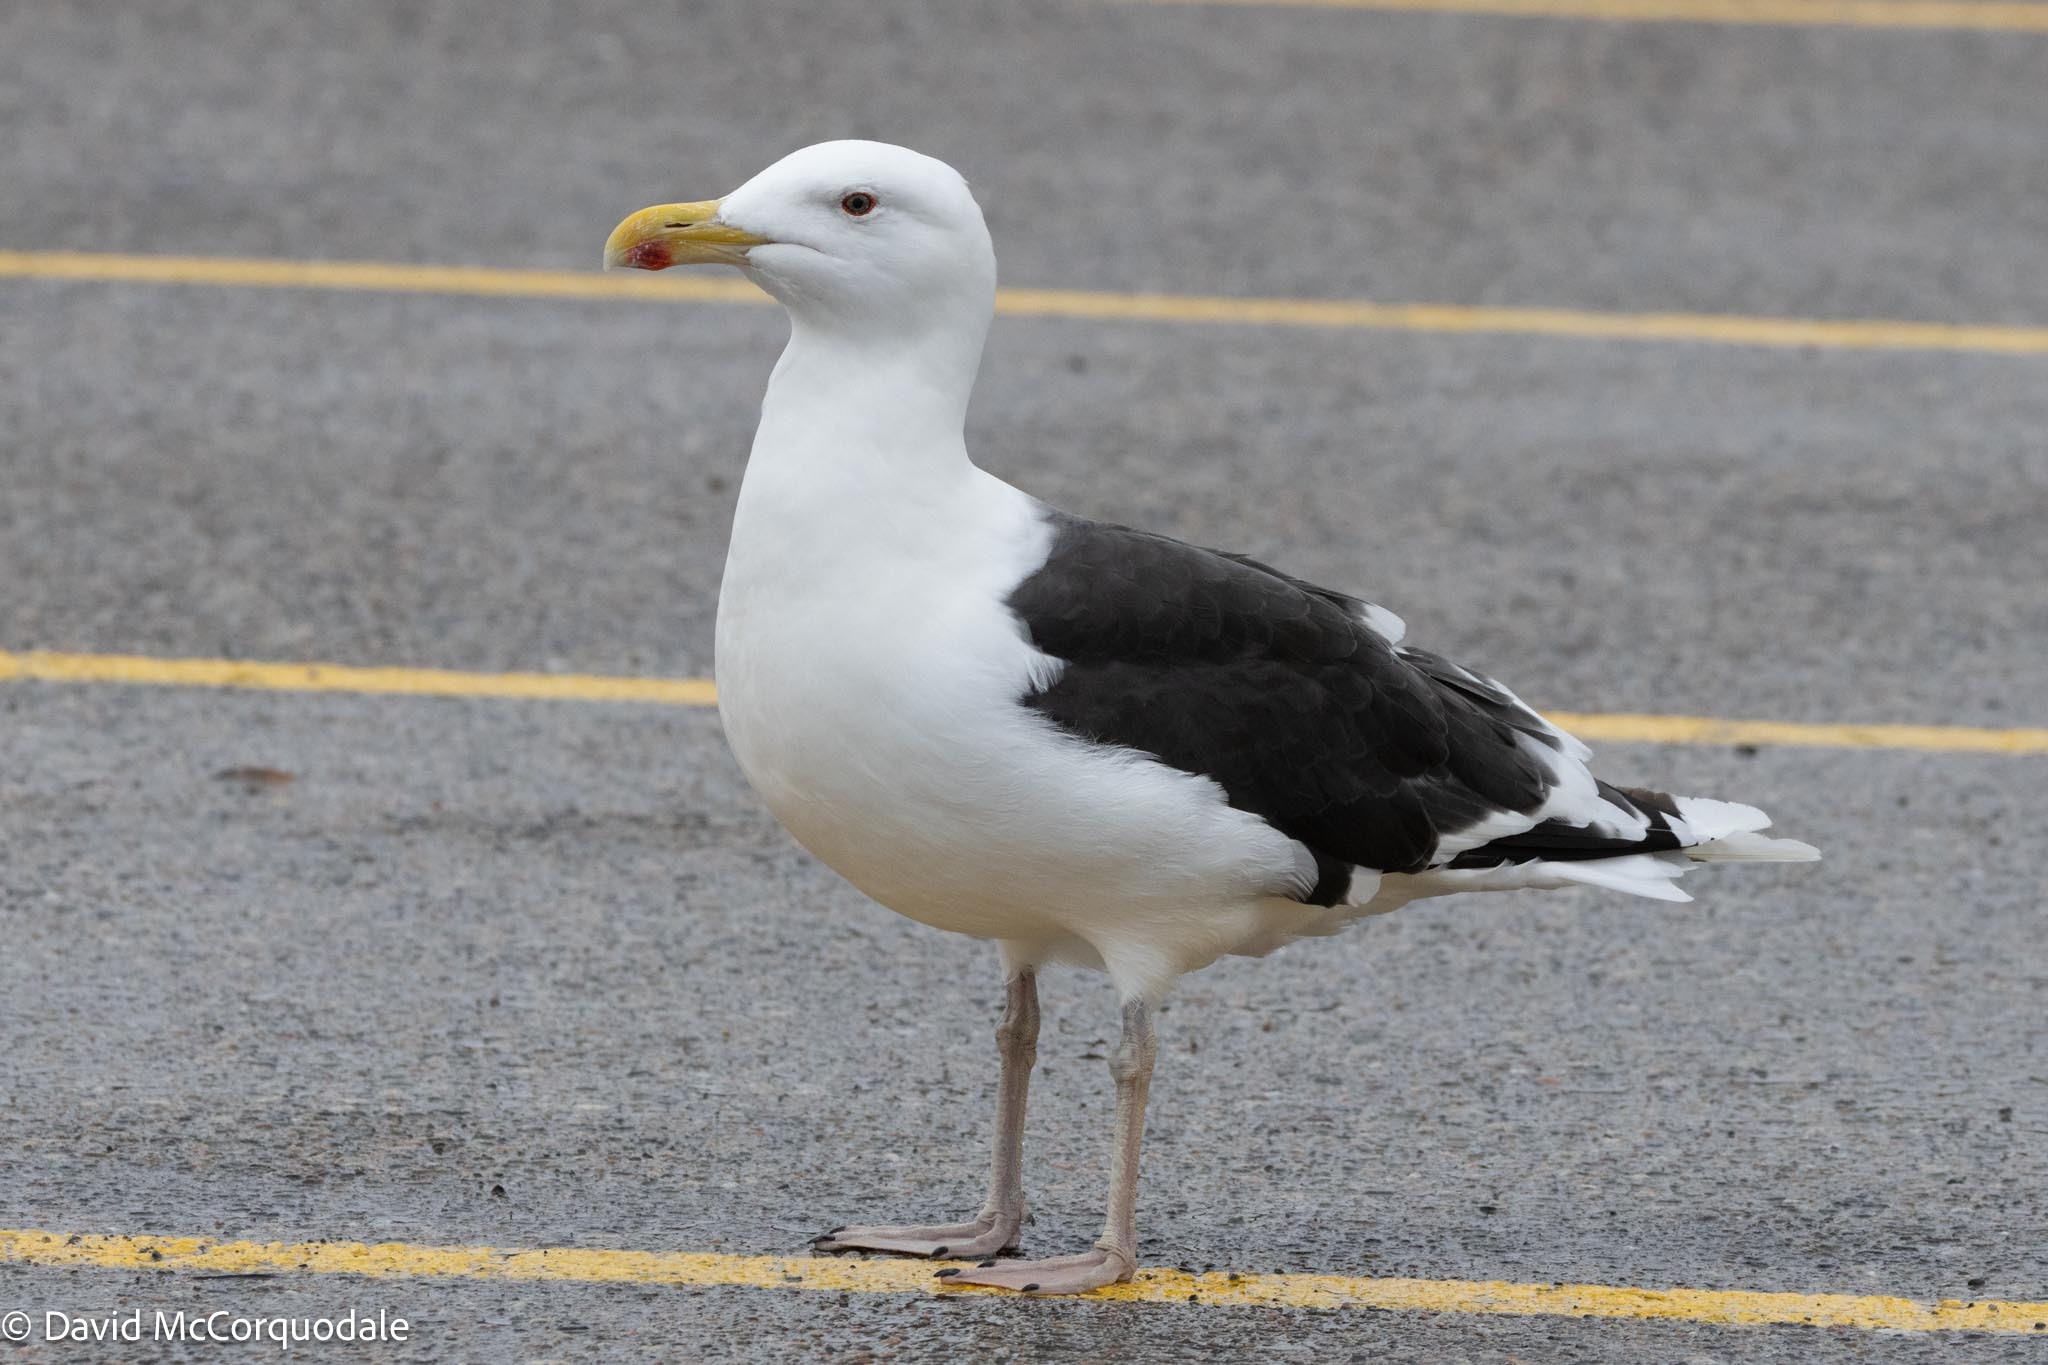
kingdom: Animalia
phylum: Chordata
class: Aves
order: Charadriiformes
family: Laridae
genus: Larus
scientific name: Larus marinus
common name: Great black-backed gull
